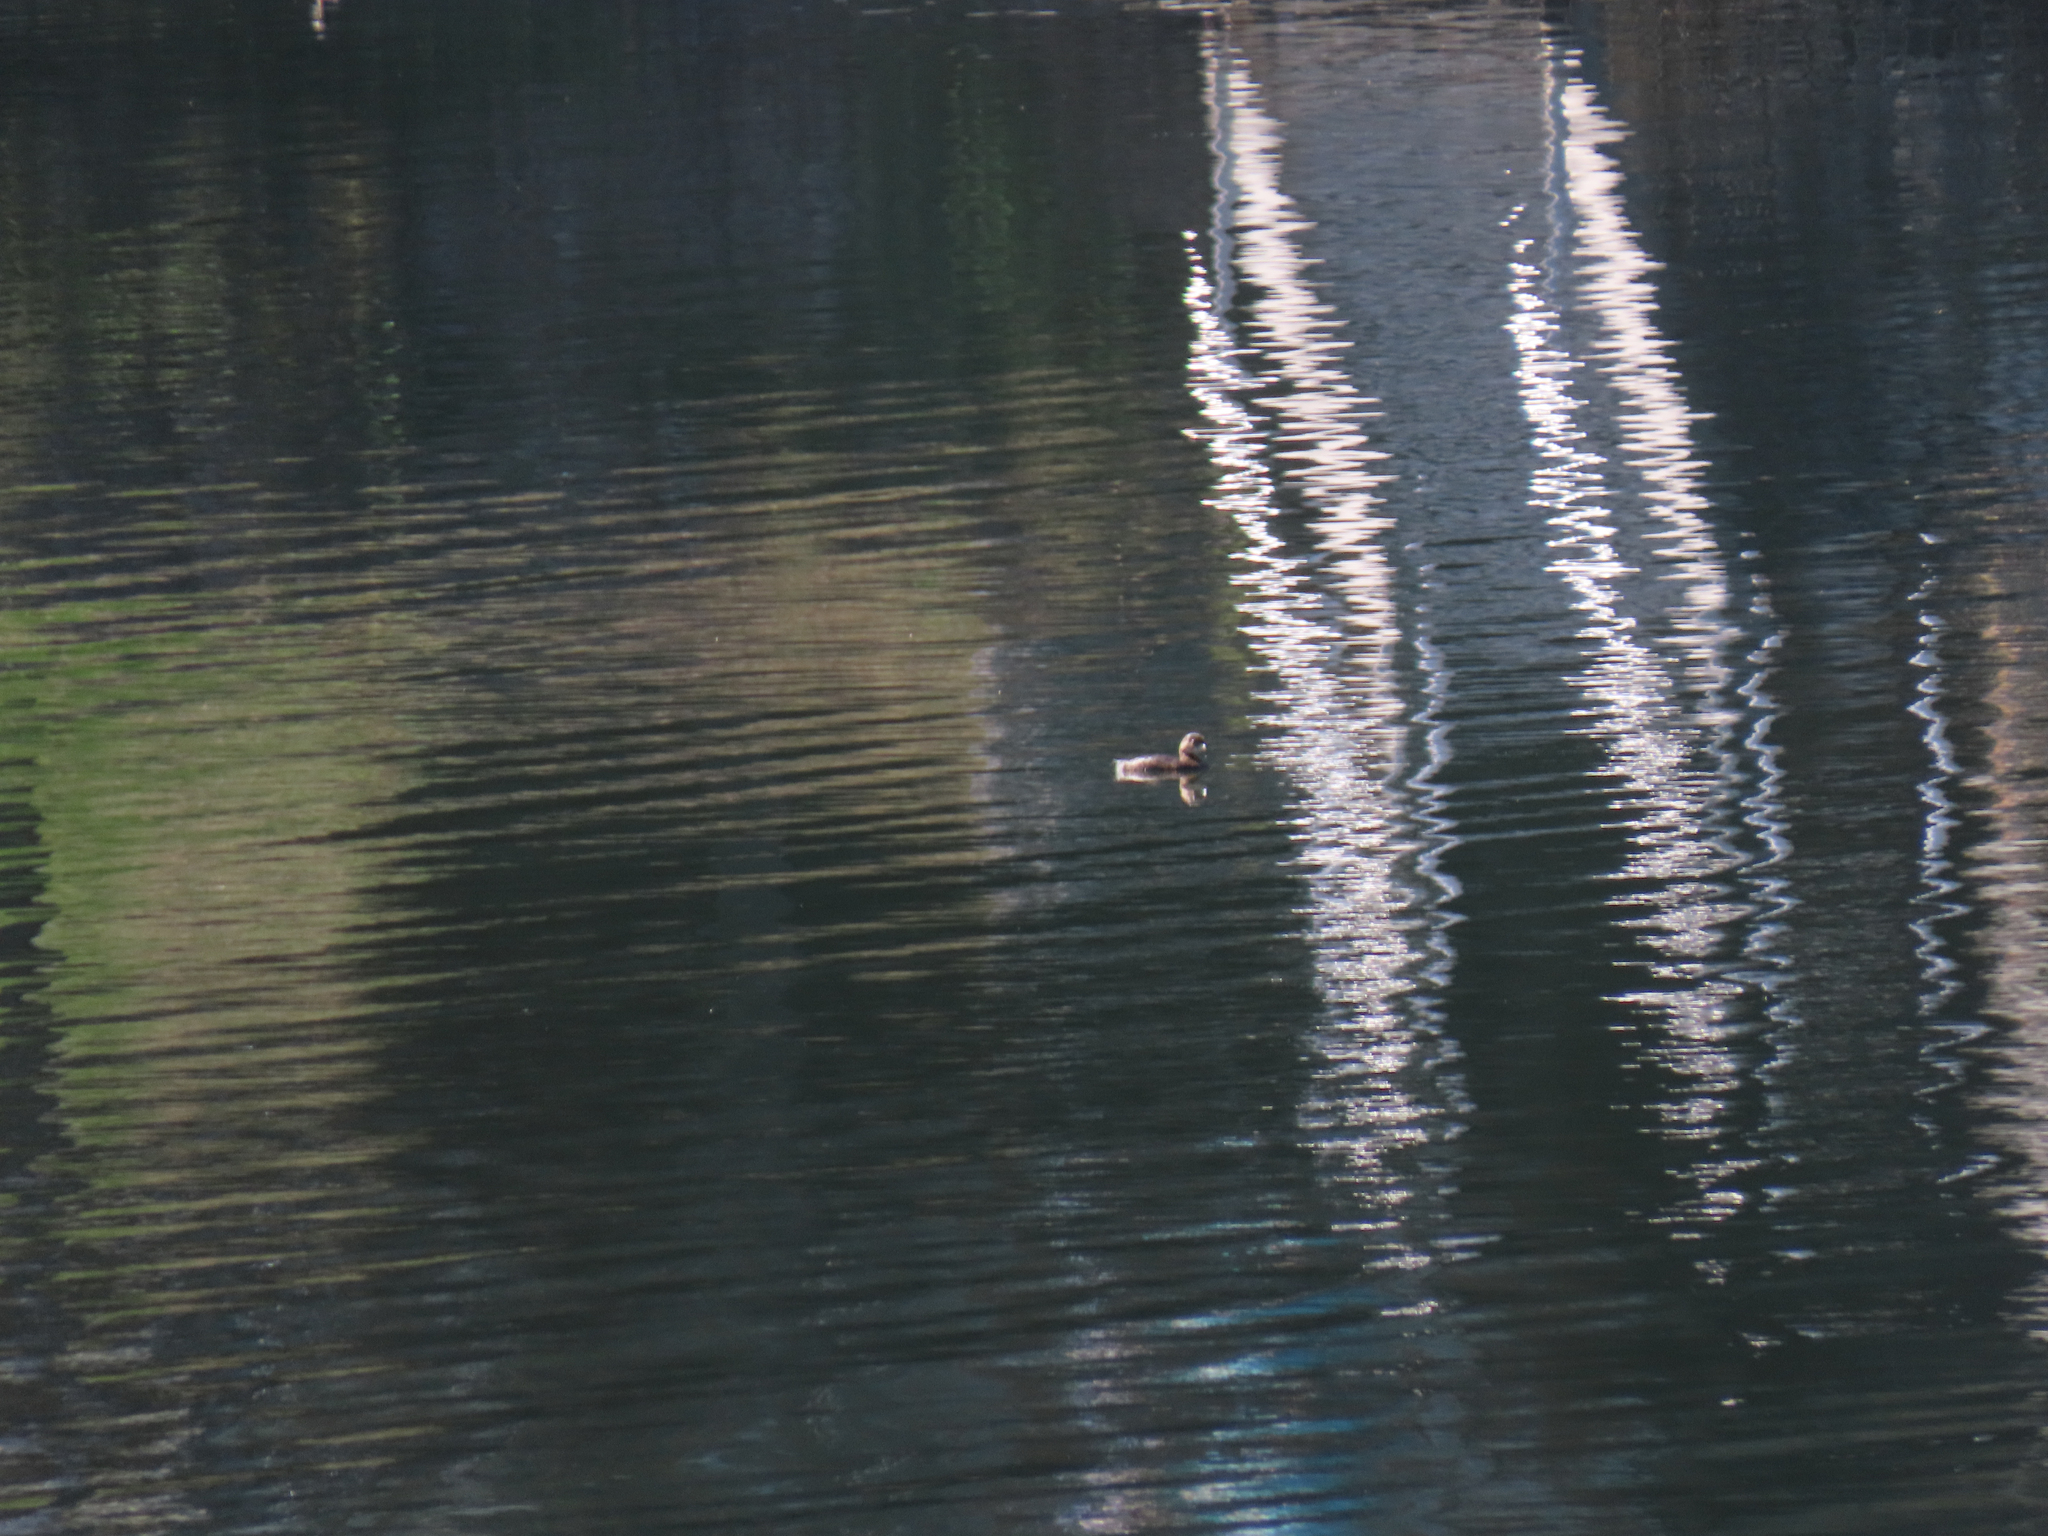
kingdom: Animalia
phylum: Chordata
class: Aves
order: Podicipediformes
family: Podicipedidae
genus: Podilymbus
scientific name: Podilymbus podiceps
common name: Pied-billed grebe
